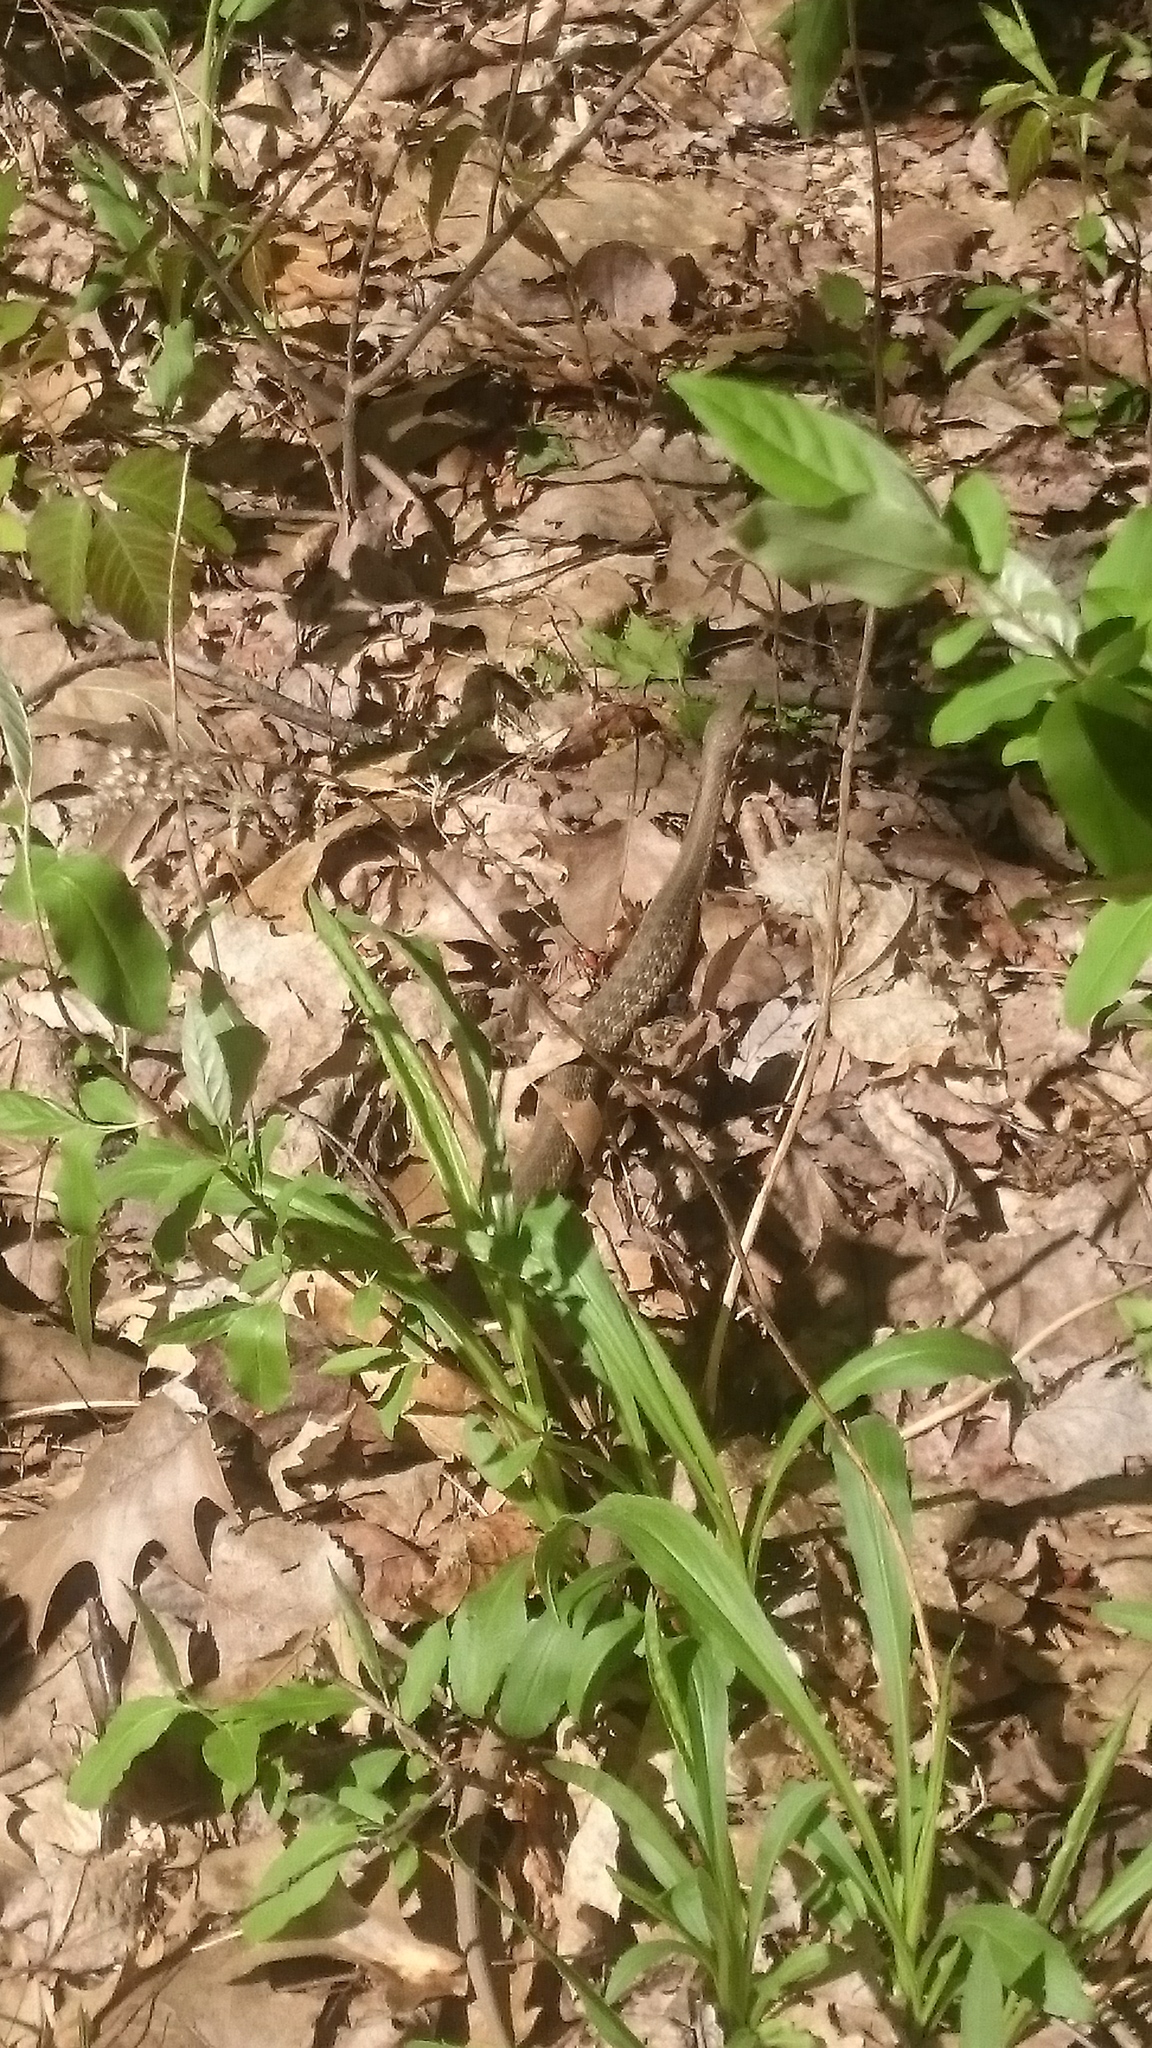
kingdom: Animalia
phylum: Chordata
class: Squamata
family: Colubridae
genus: Thamnophis
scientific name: Thamnophis sirtalis
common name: Common garter snake
